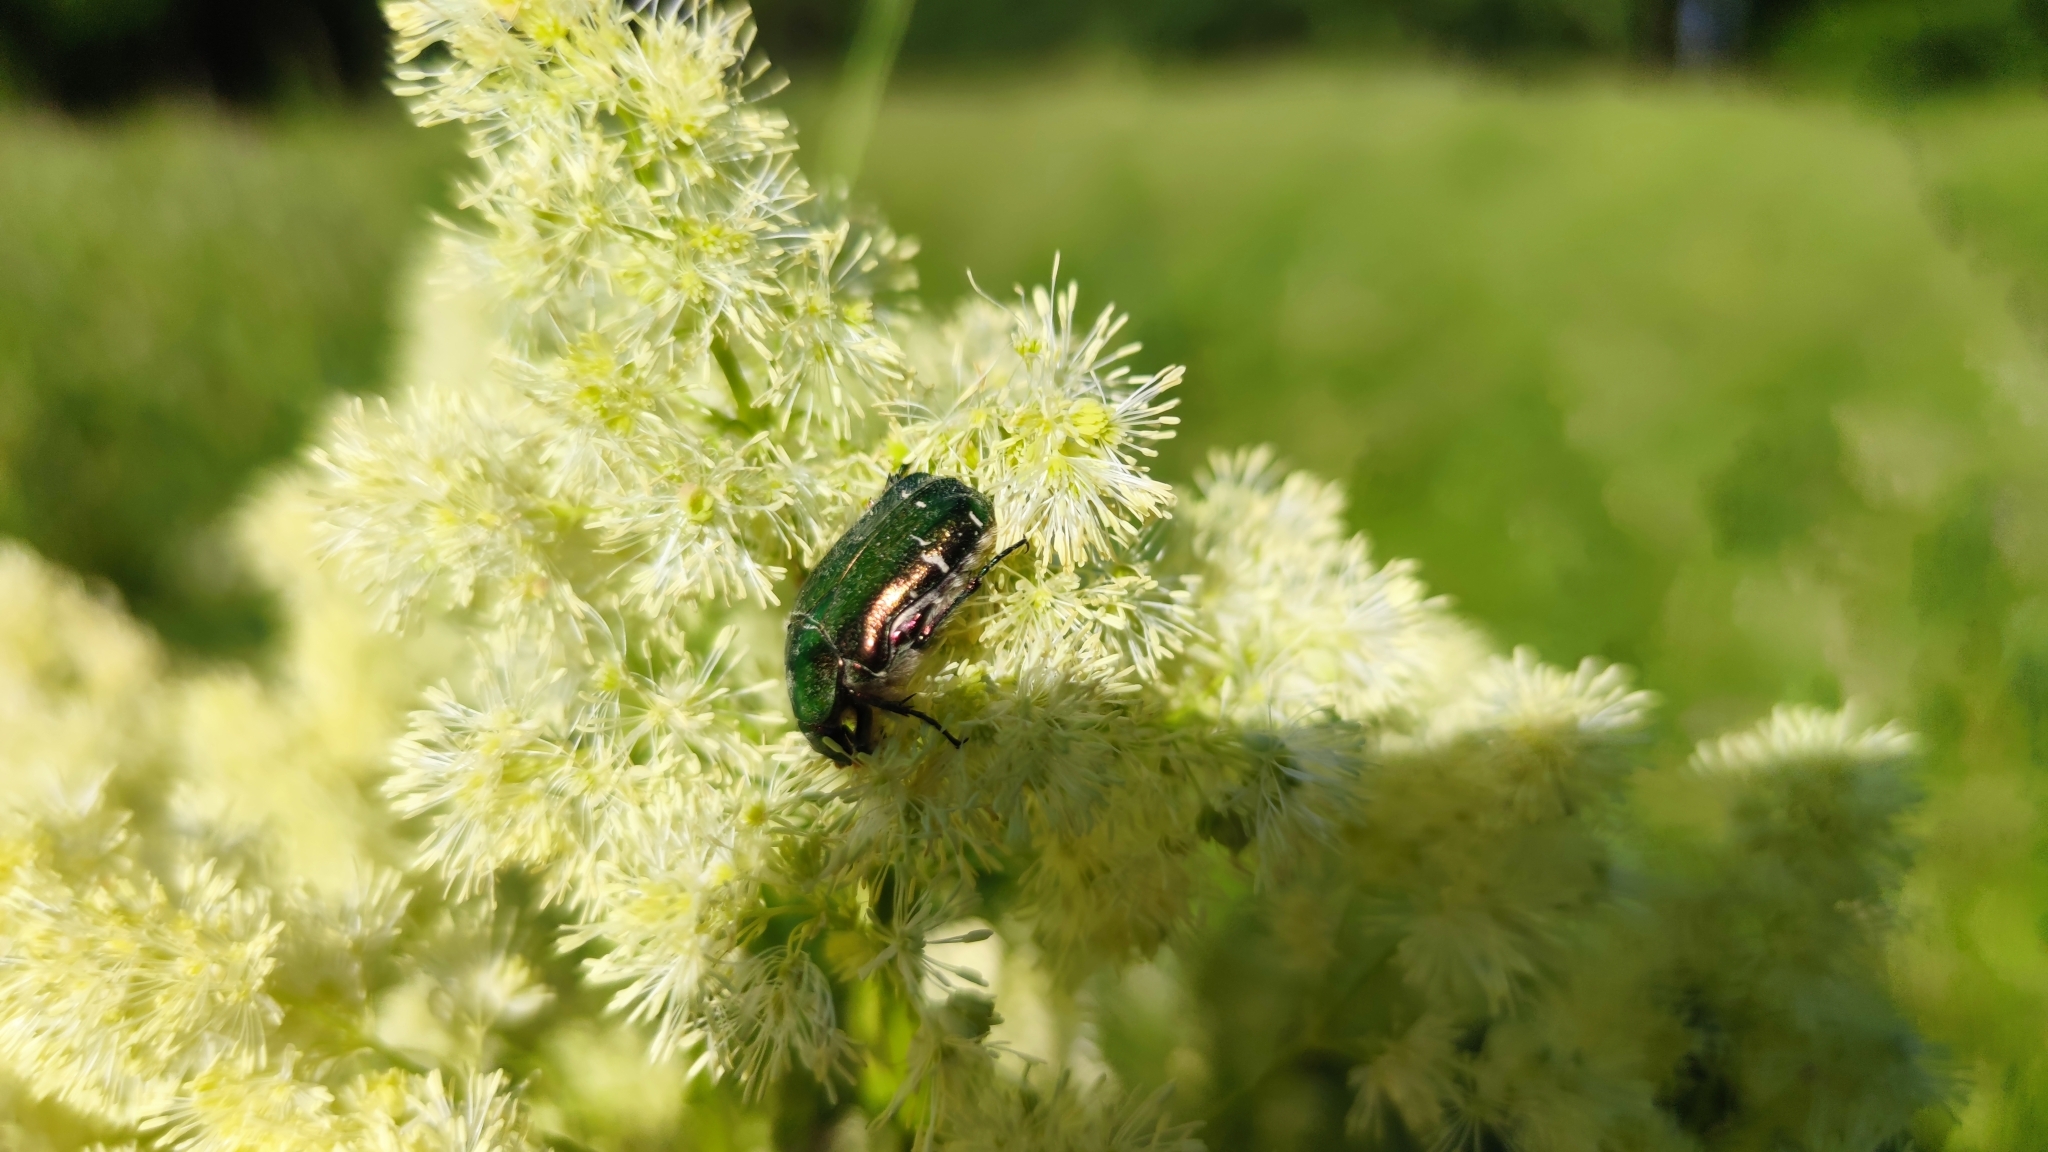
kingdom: Animalia
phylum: Arthropoda
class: Insecta
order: Coleoptera
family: Scarabaeidae
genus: Cetonia
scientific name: Cetonia aurata
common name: Rose chafer
